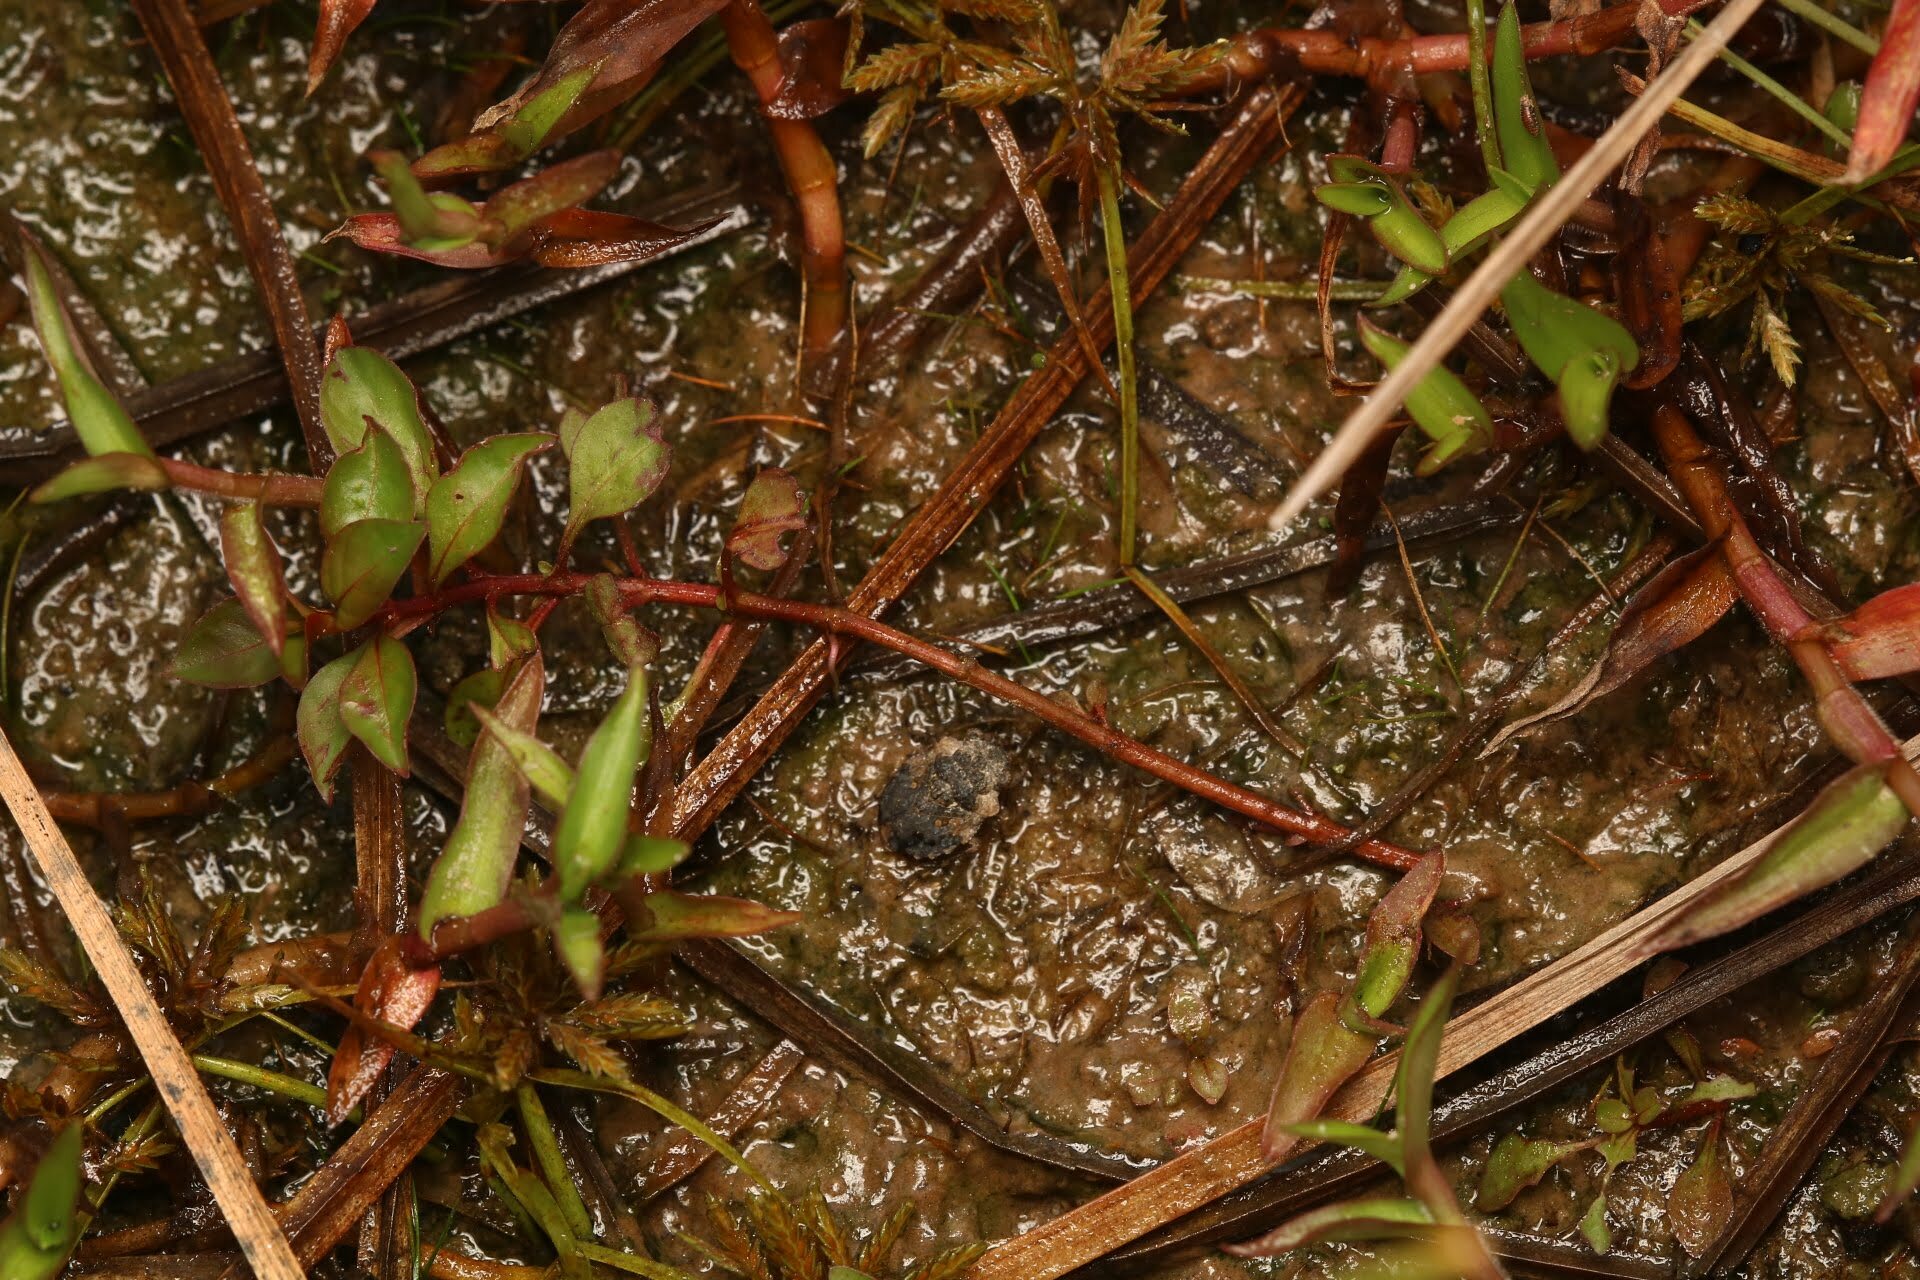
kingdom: Animalia
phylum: Arthropoda
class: Insecta
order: Hemiptera
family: Gelastocoridae
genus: Gelastocoris
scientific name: Gelastocoris oculatus
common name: Toad bug
